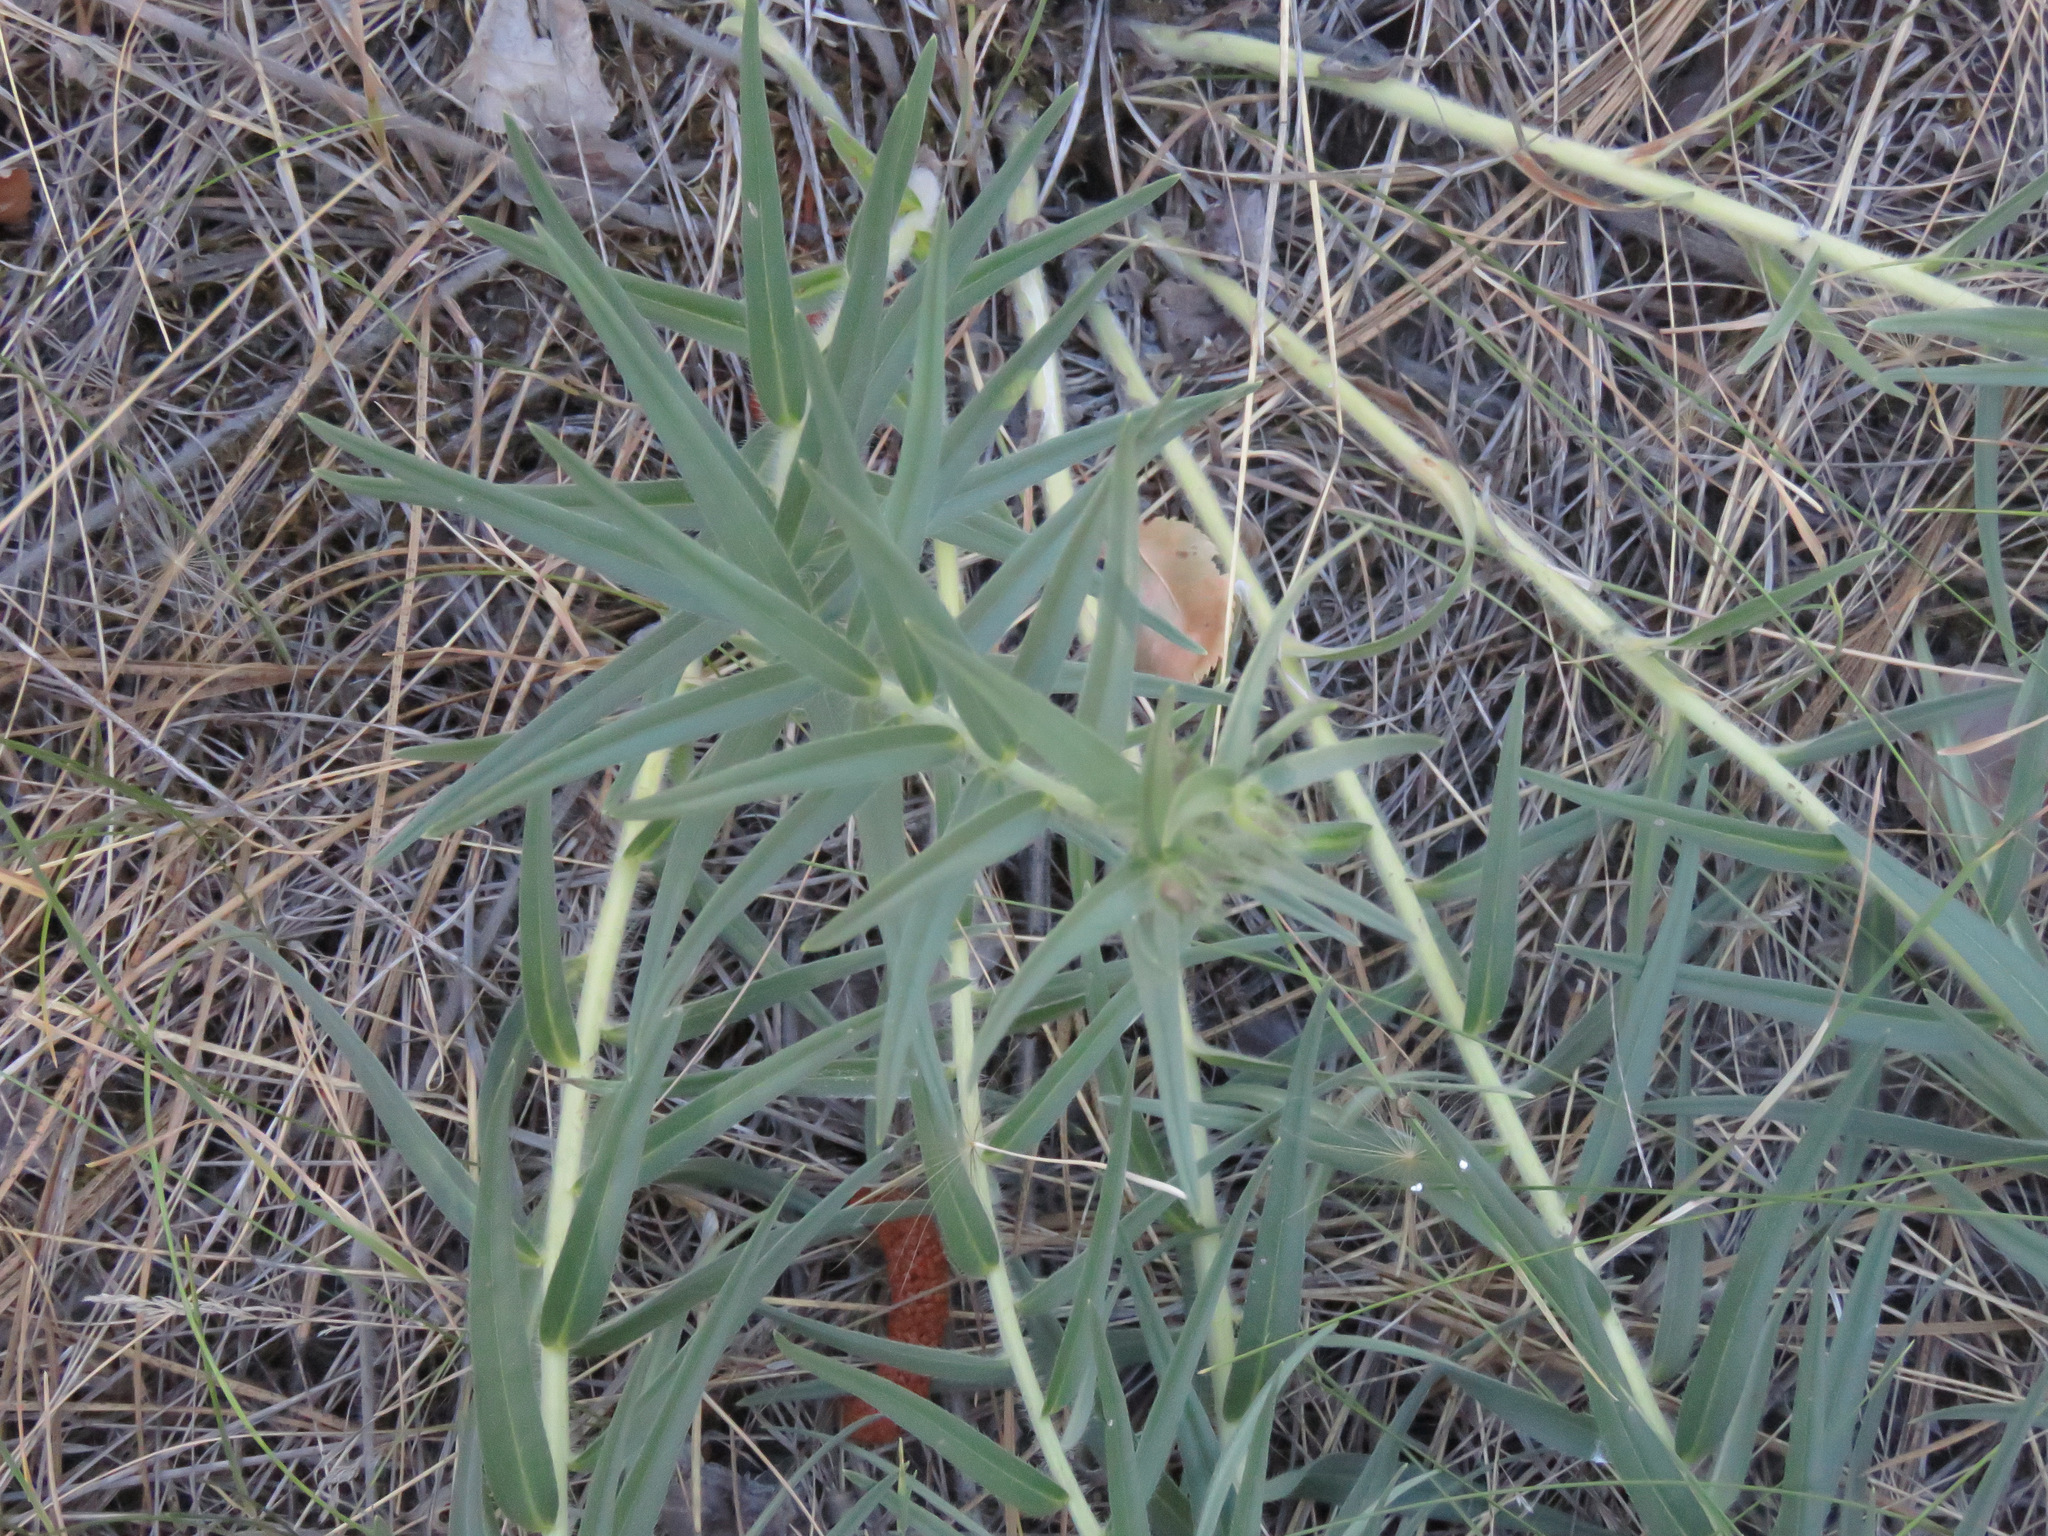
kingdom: Plantae
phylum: Tracheophyta
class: Magnoliopsida
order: Boraginales
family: Boraginaceae
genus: Lithospermum
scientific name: Lithospermum ruderale
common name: Western gromwell
